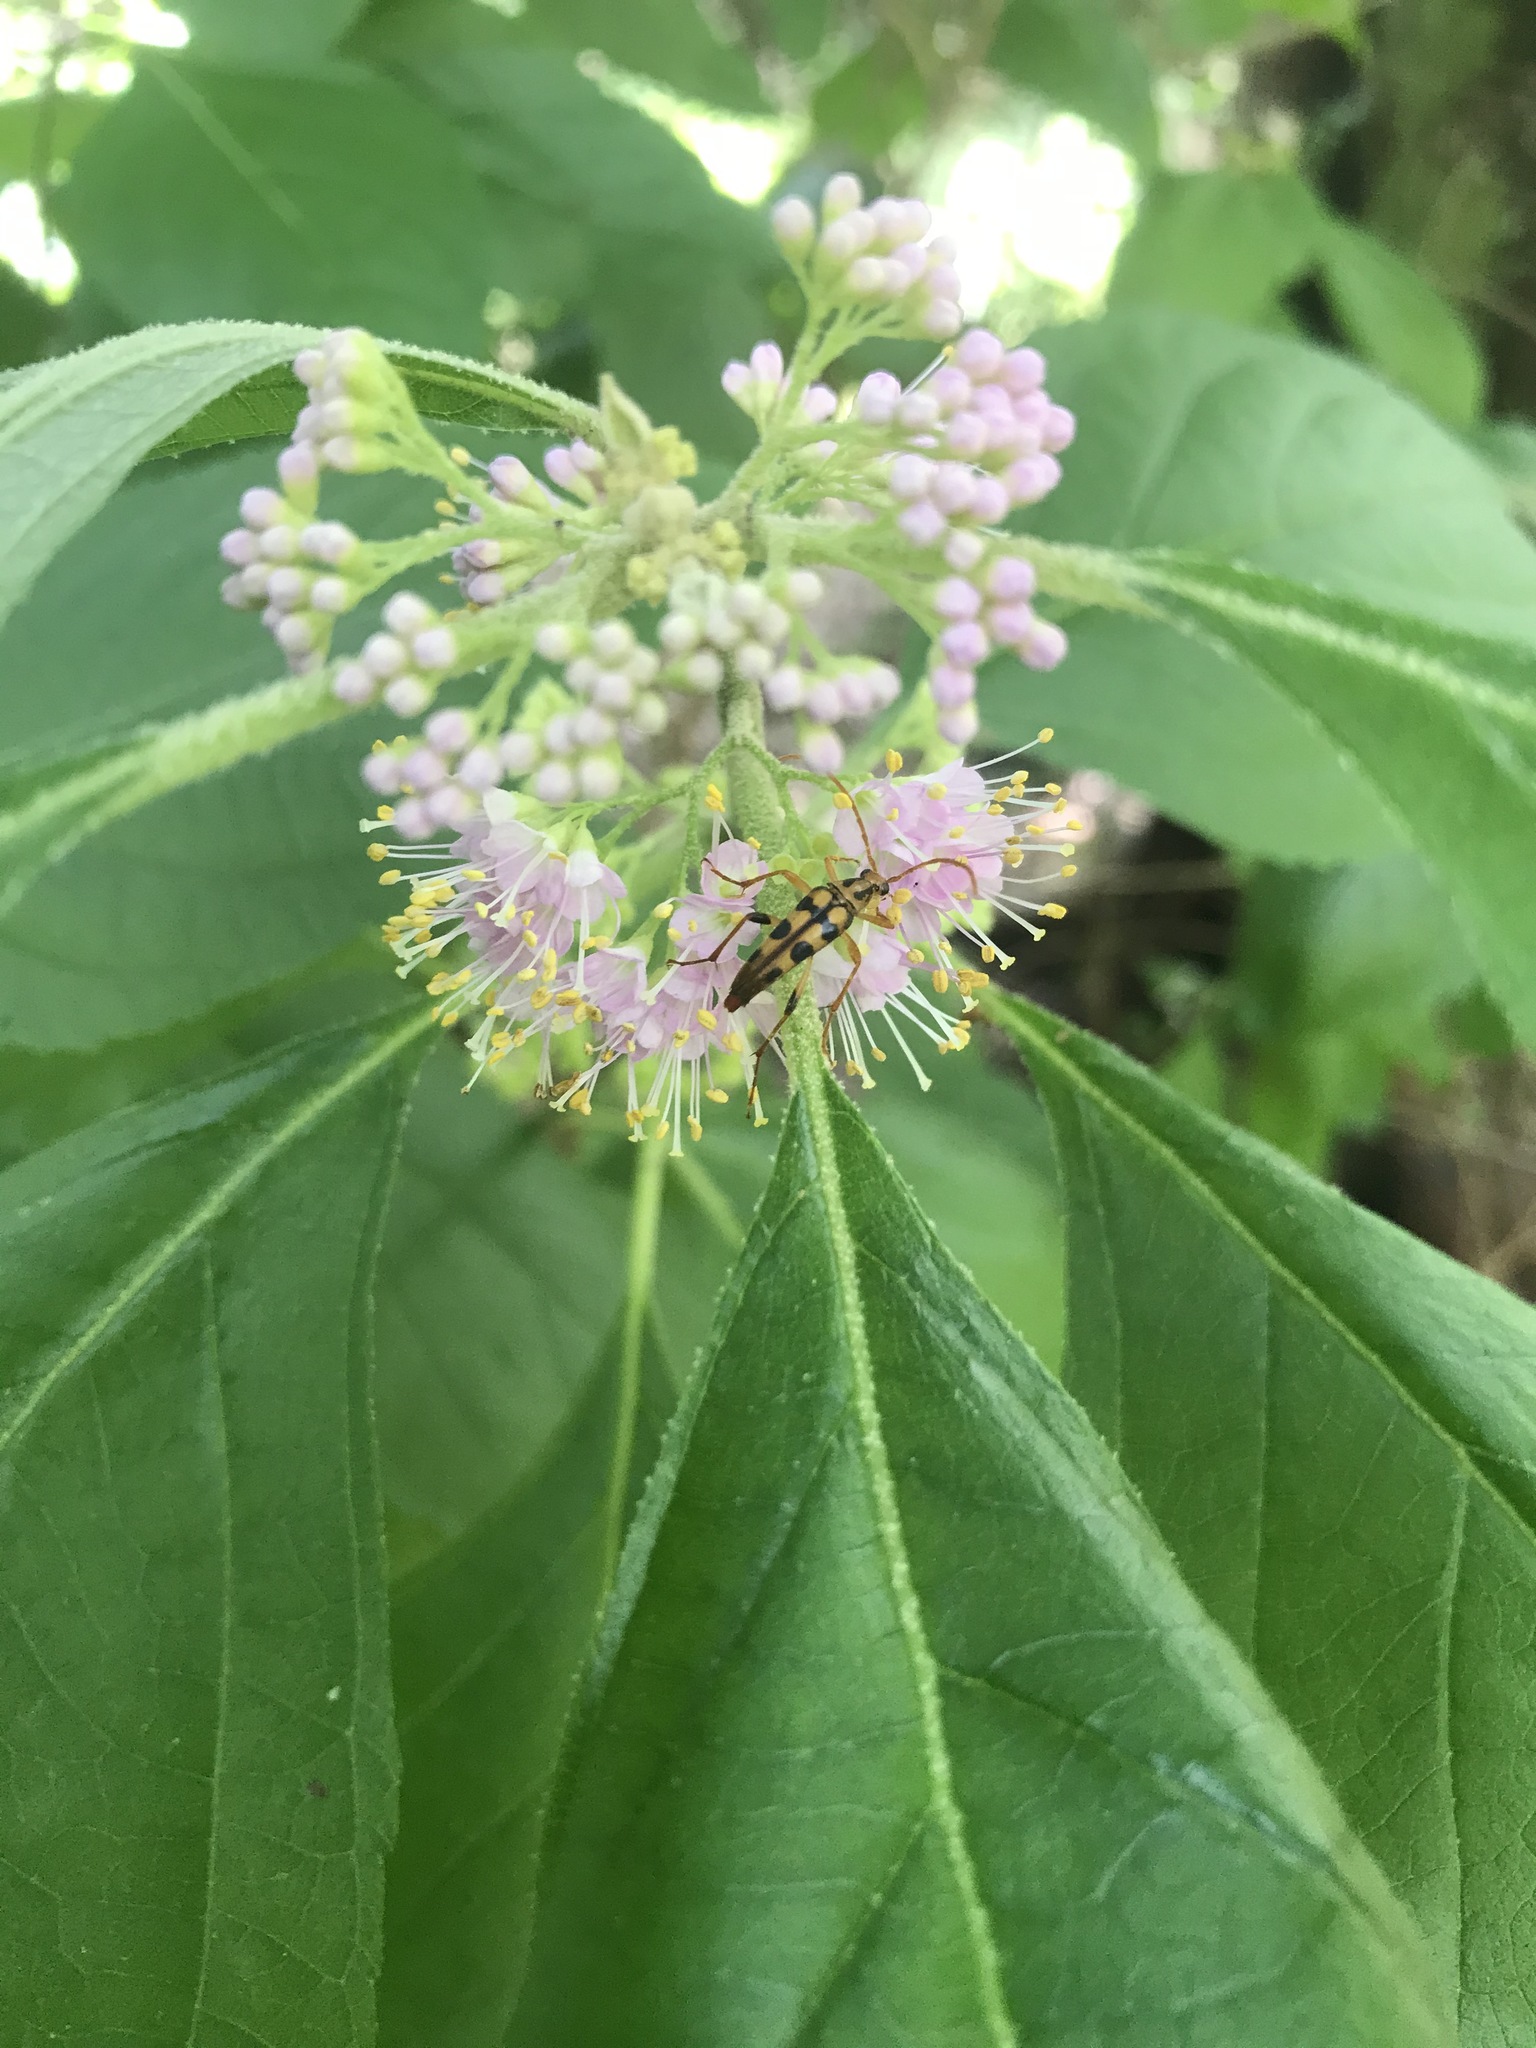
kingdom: Animalia
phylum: Arthropoda
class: Insecta
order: Coleoptera
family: Cerambycidae
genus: Strangalia
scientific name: Strangalia luteicornis
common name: Yellow-horned flower longhorn beetle
